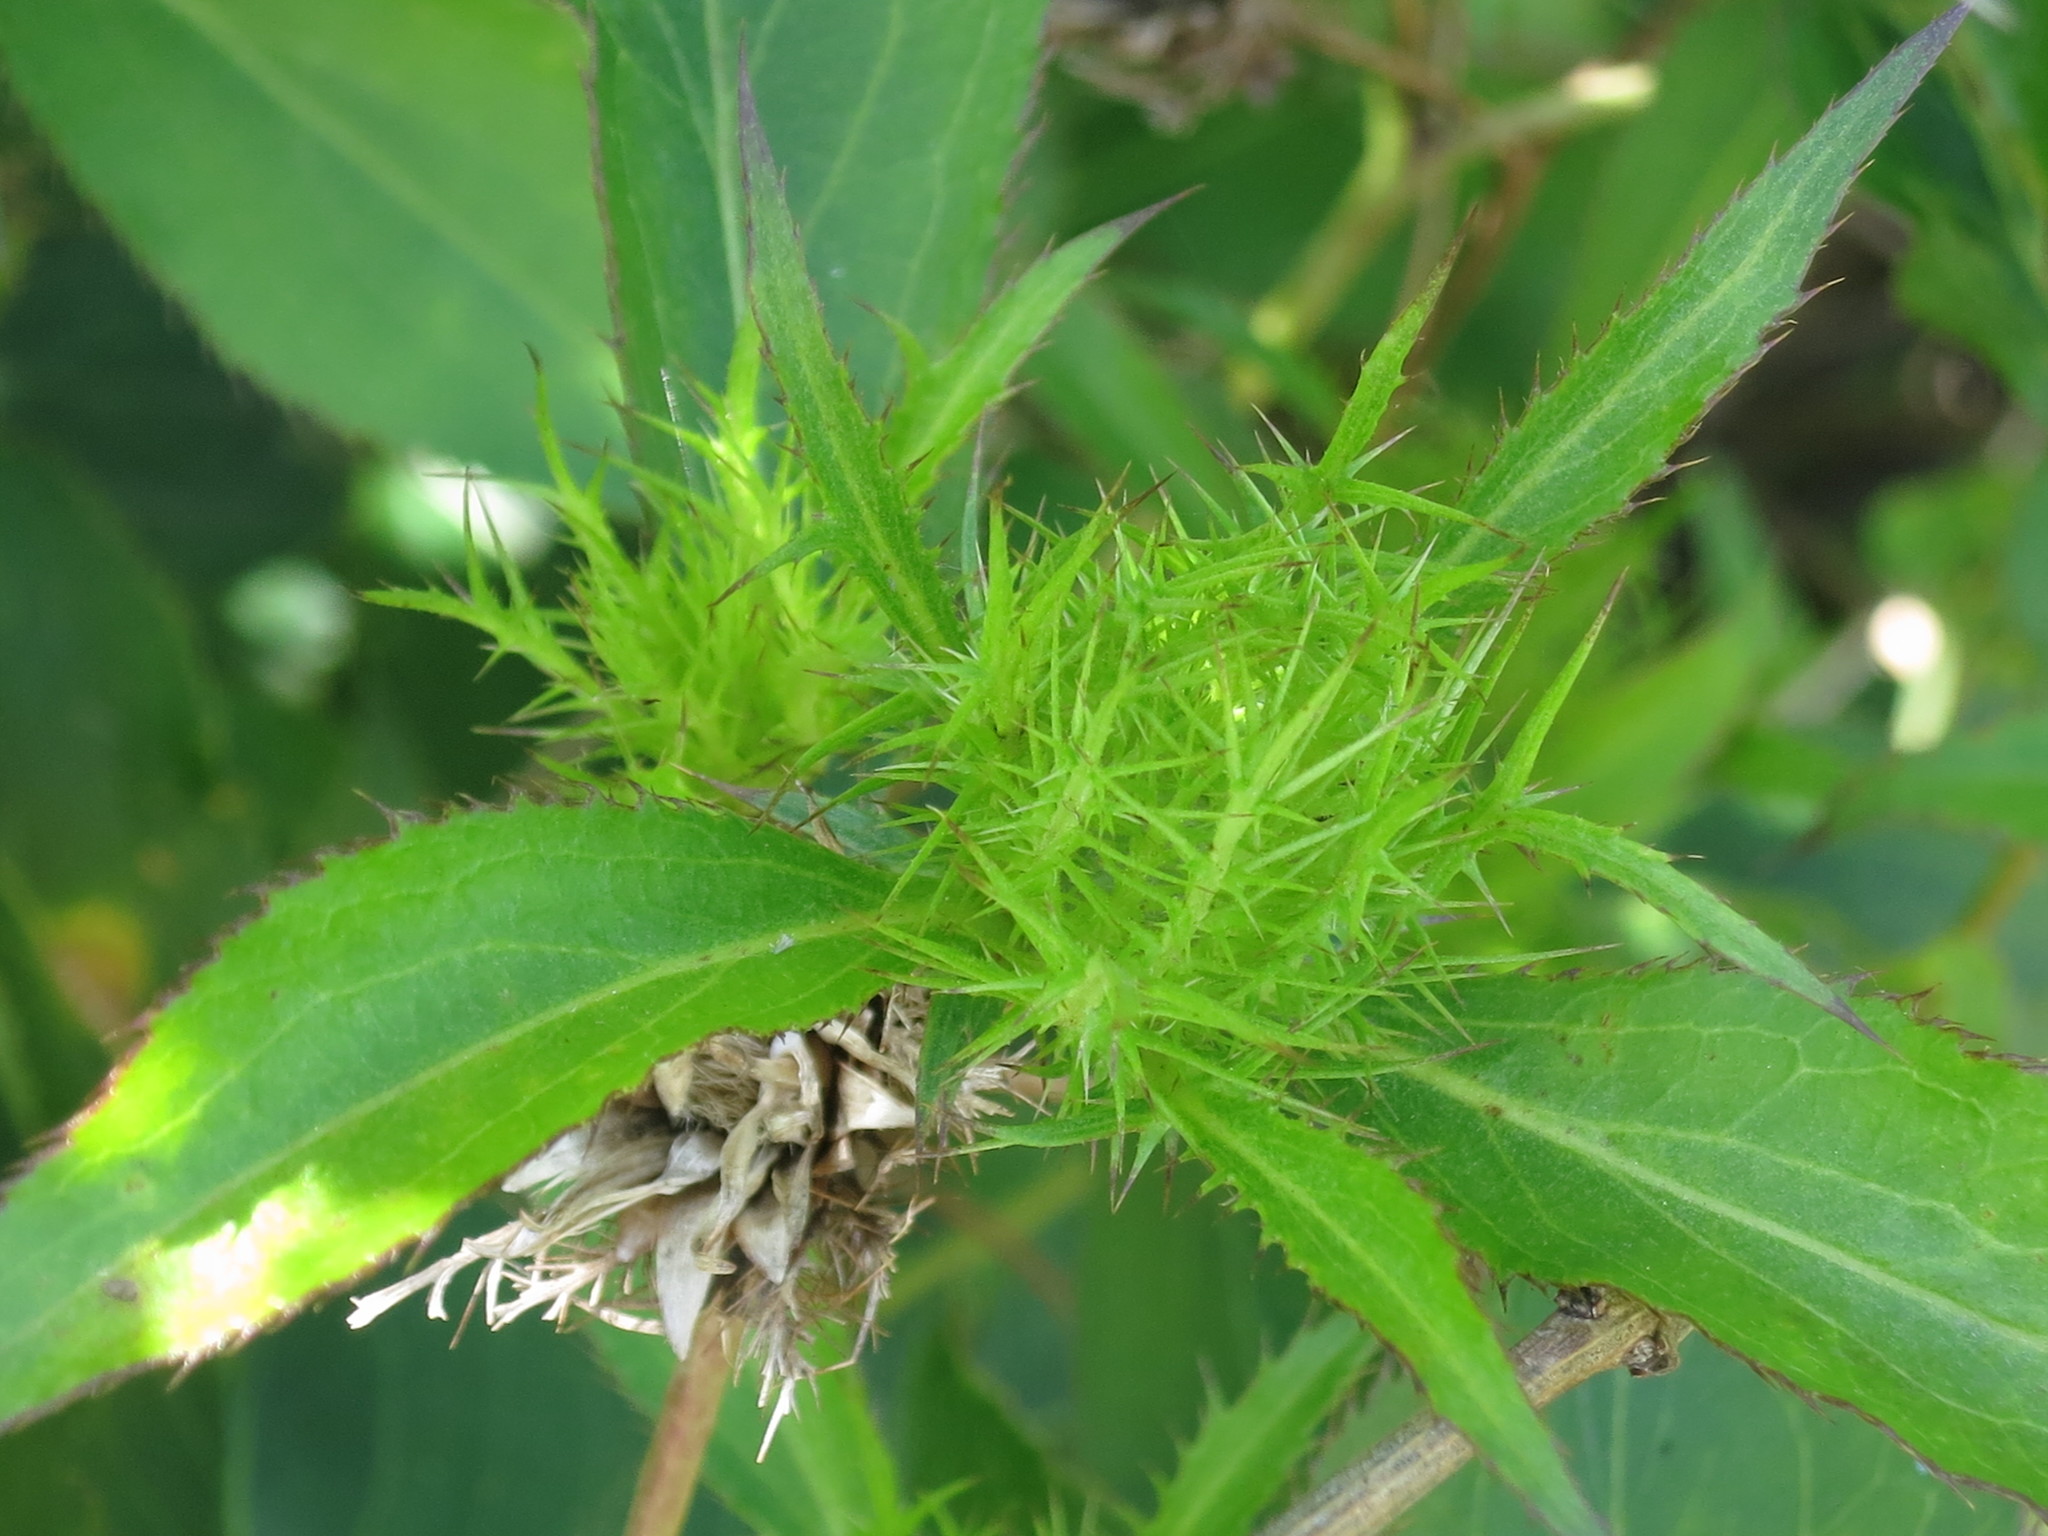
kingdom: Plantae
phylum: Tracheophyta
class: Magnoliopsida
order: Asterales
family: Asteraceae
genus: Atractylodes
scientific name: Atractylodes lancea
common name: Southern tsangshu
